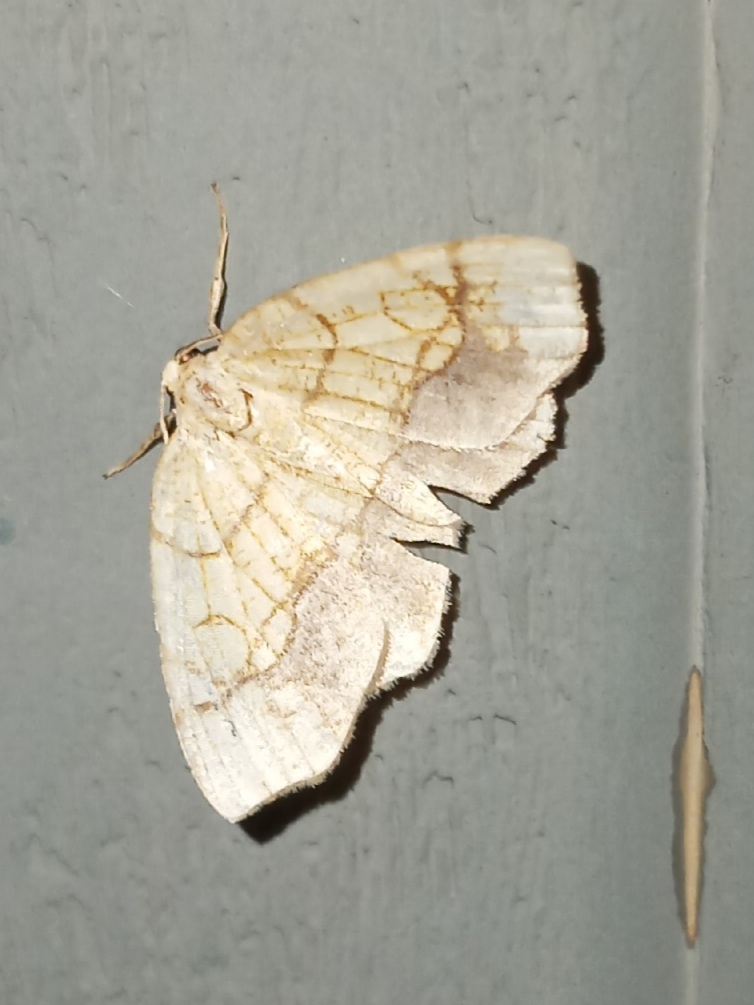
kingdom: Animalia
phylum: Arthropoda
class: Insecta
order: Lepidoptera
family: Geometridae
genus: Nematocampa
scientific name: Nematocampa resistaria
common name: Horned spanworm moth
